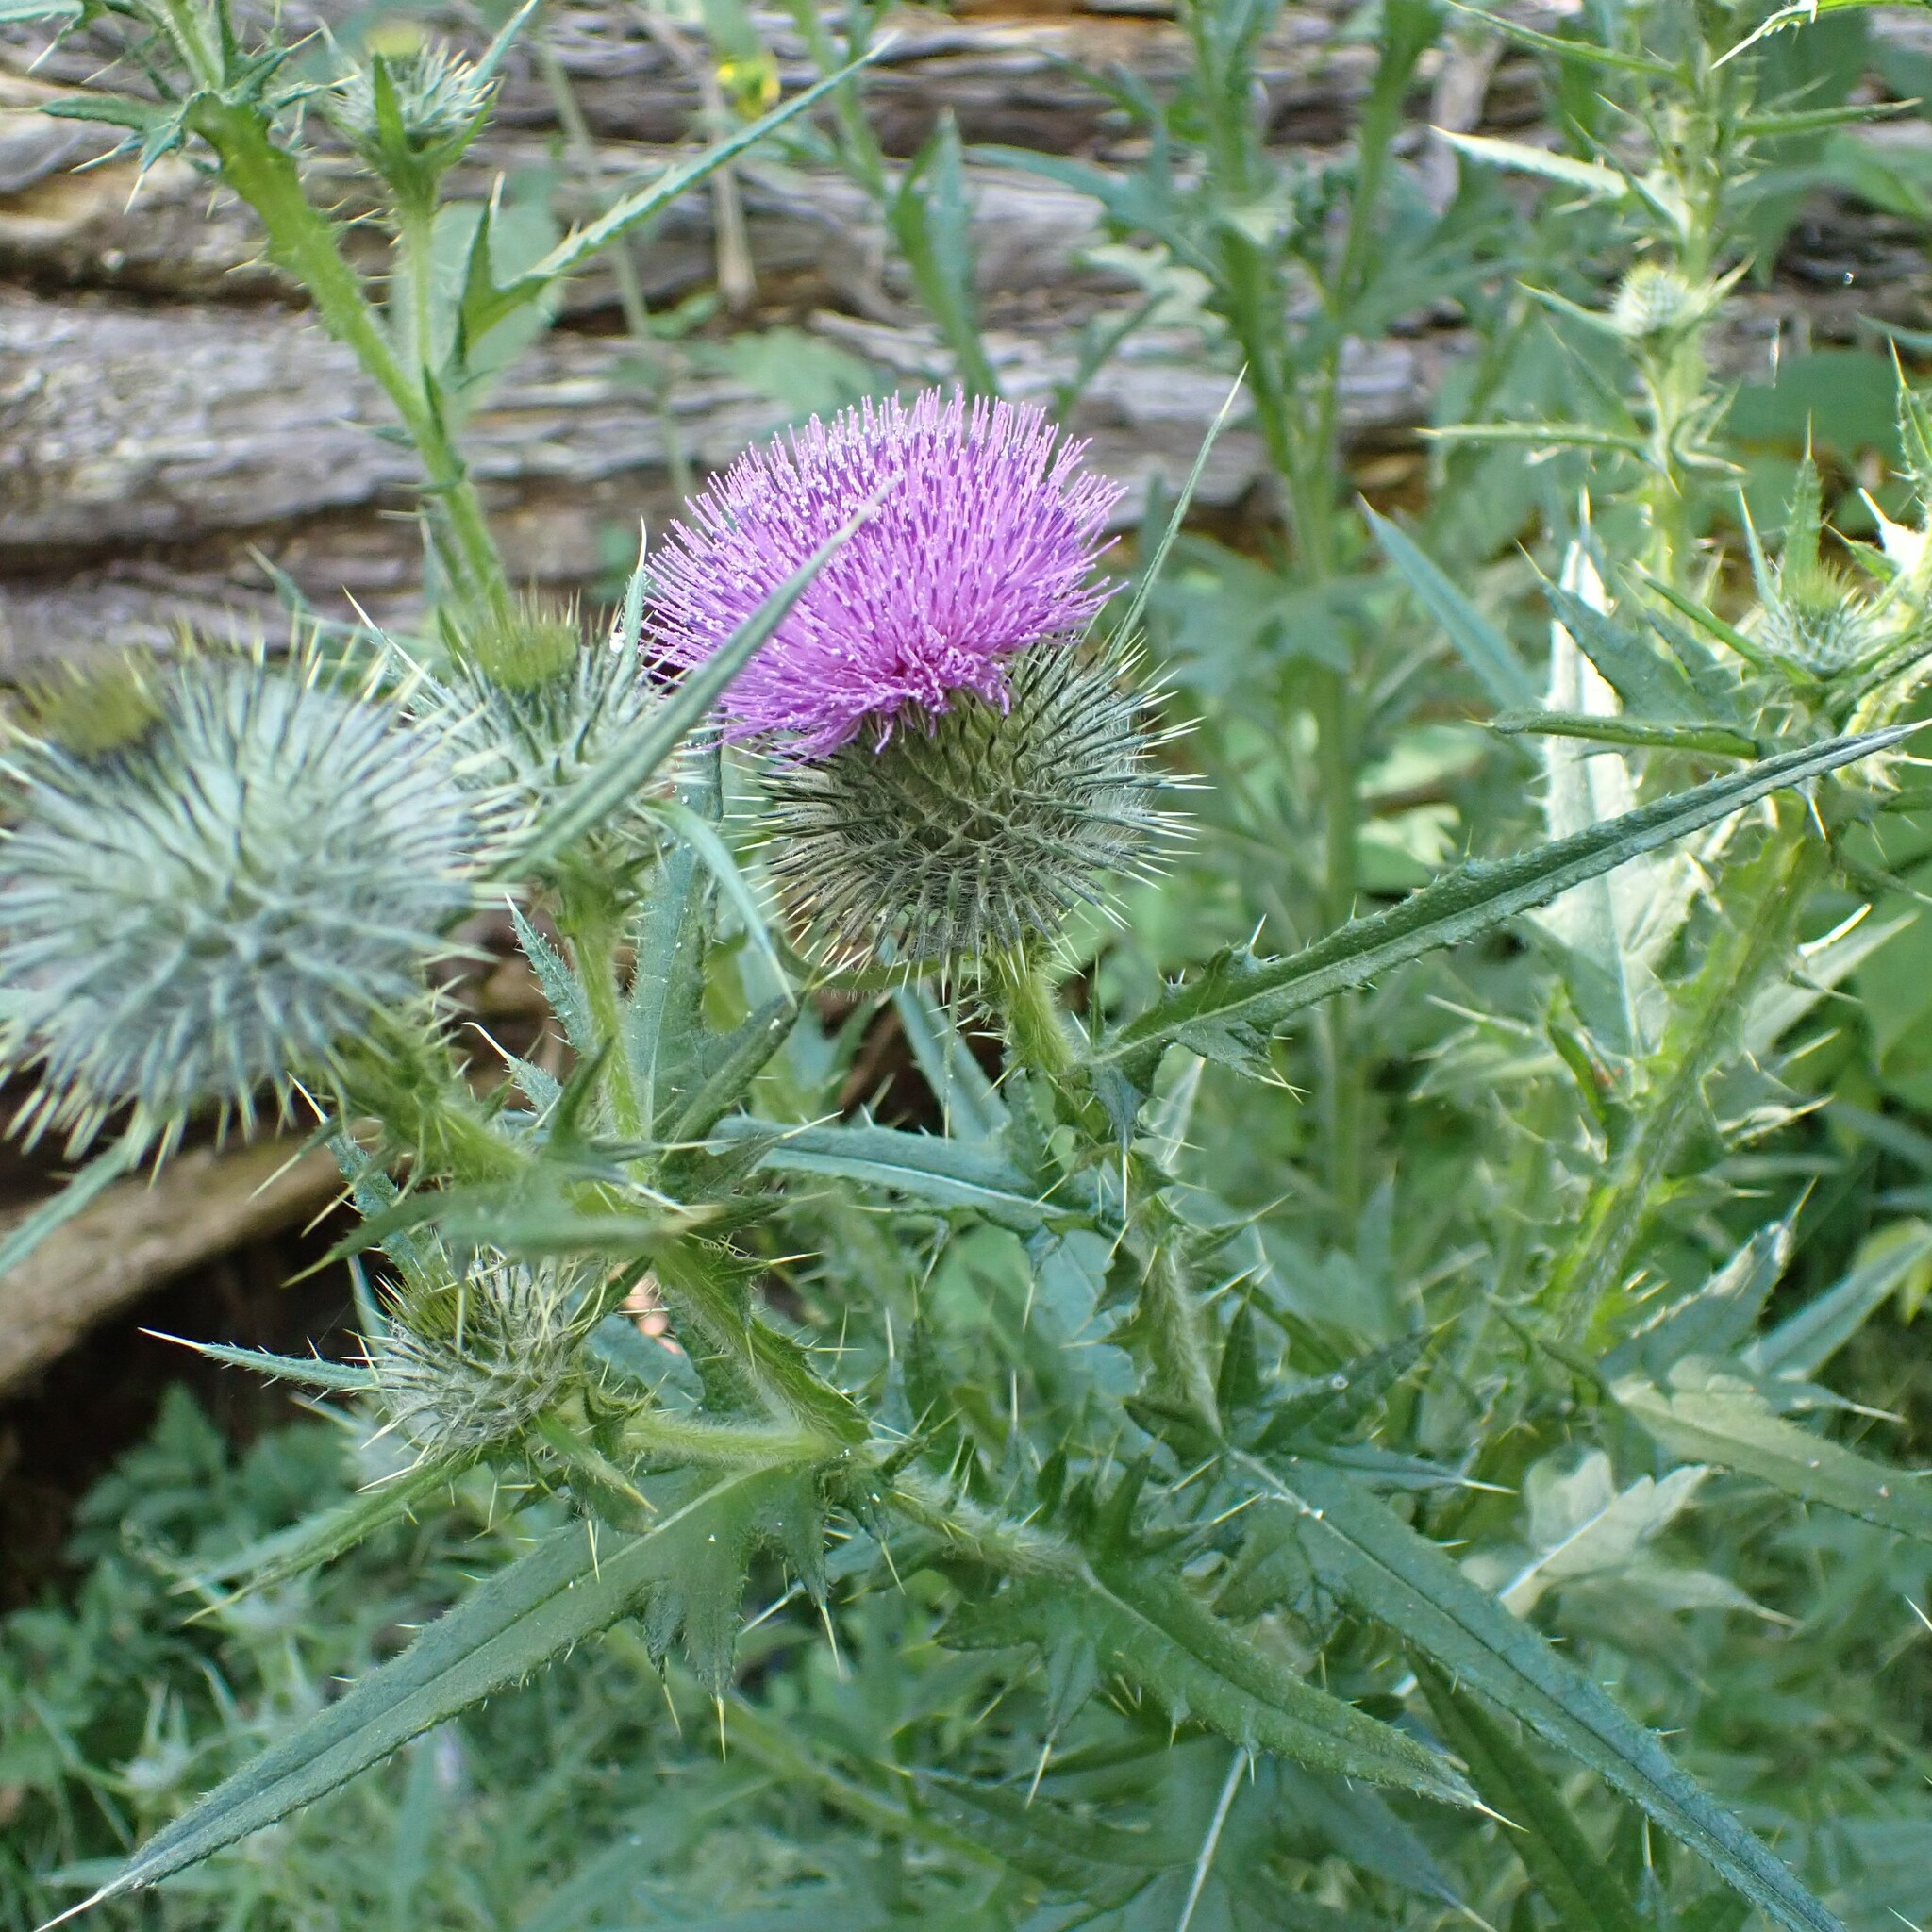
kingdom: Plantae
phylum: Tracheophyta
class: Magnoliopsida
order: Asterales
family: Asteraceae
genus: Cirsium
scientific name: Cirsium vulgare
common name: Bull thistle
